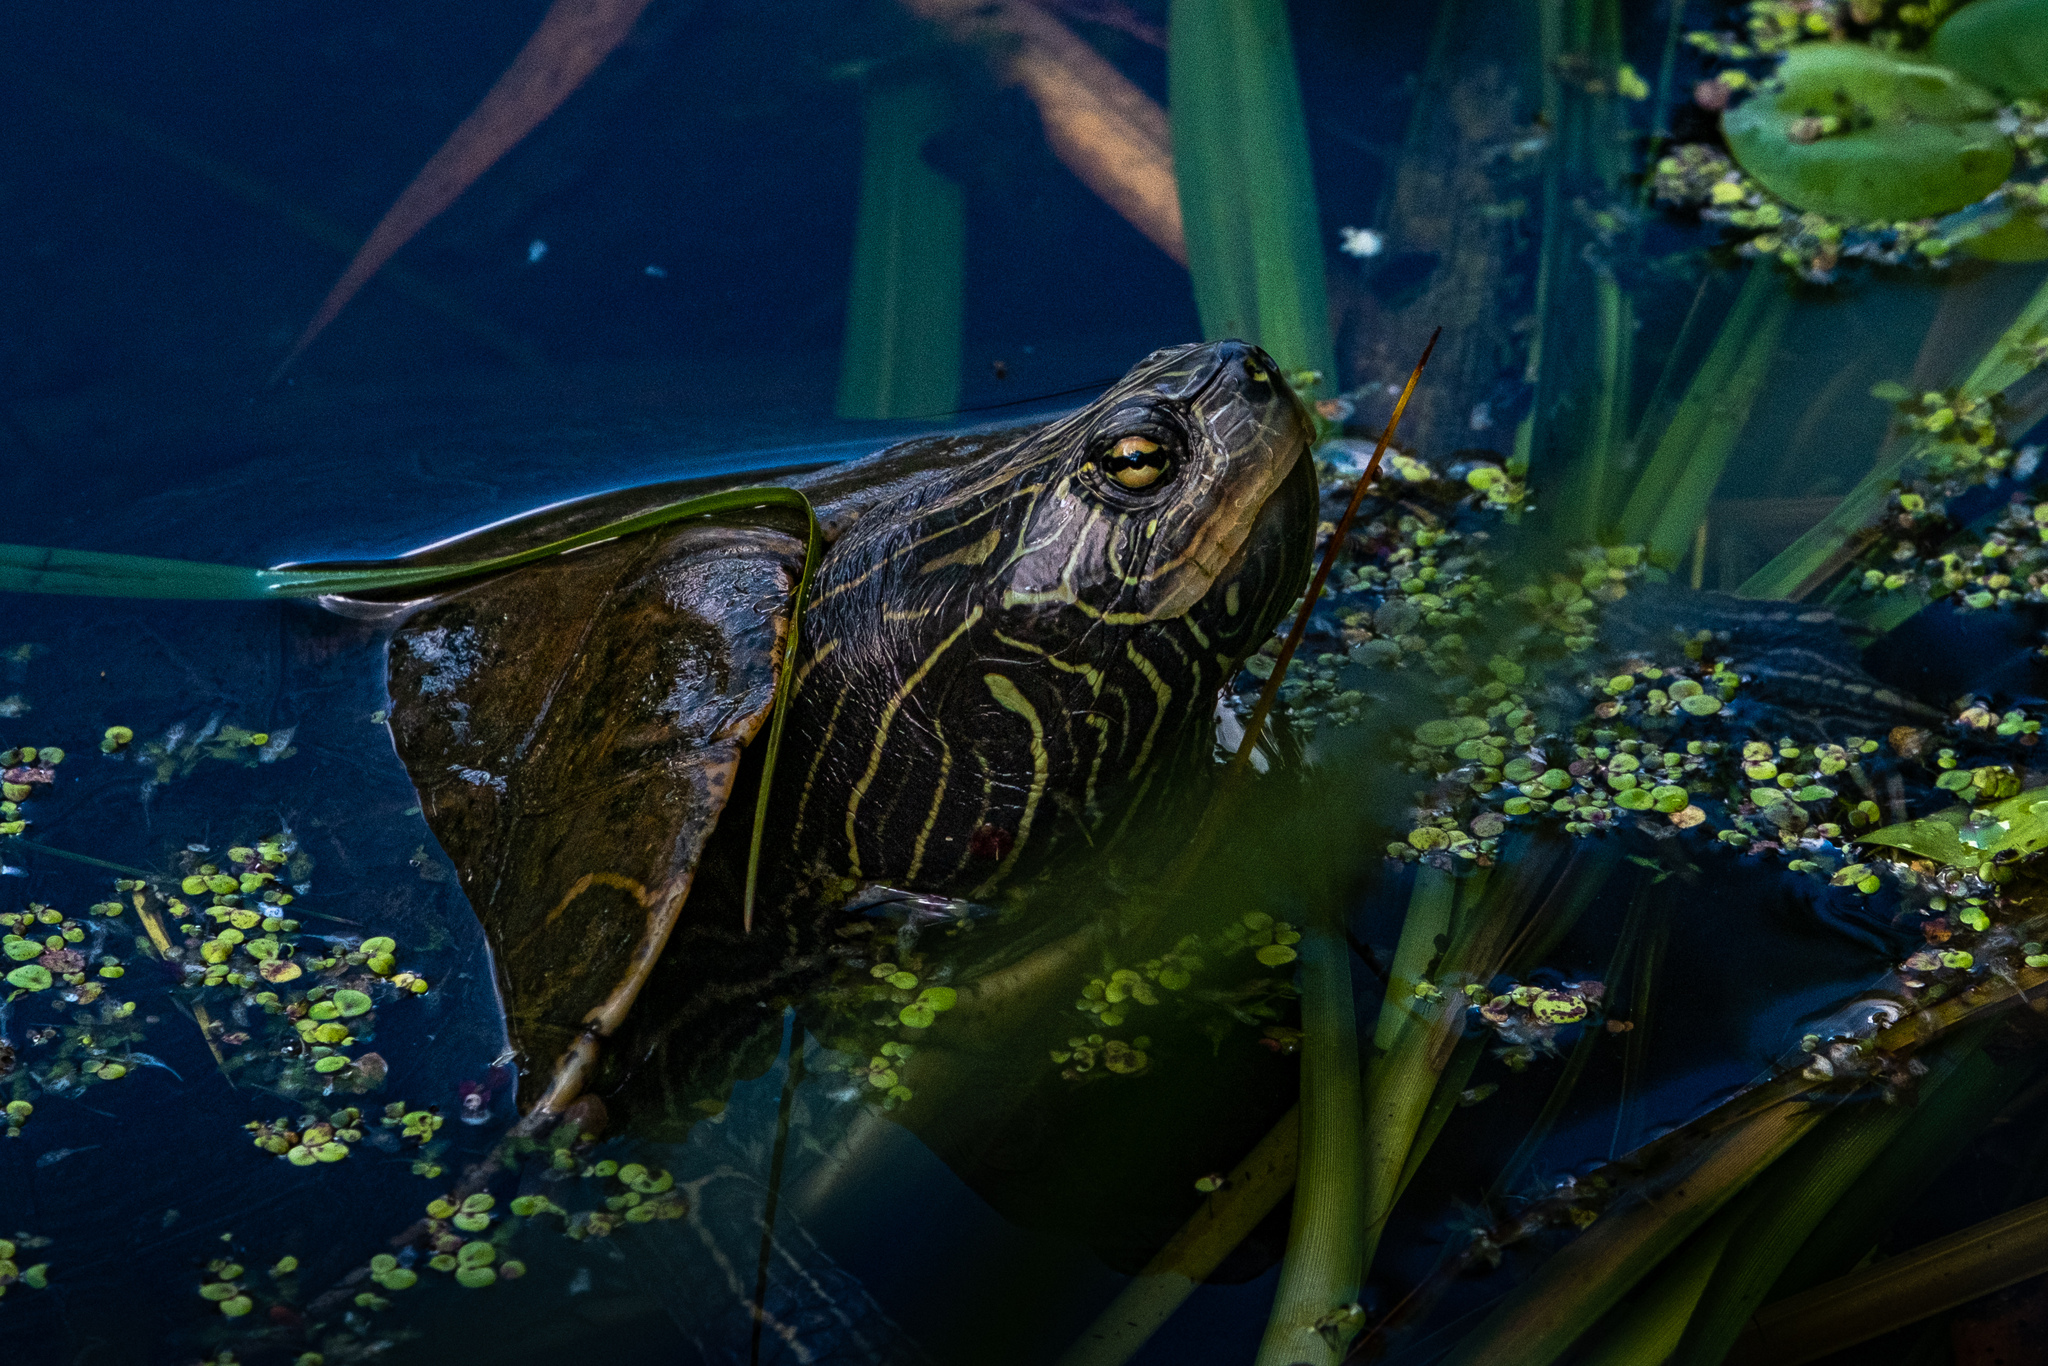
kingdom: Animalia
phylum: Chordata
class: Testudines
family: Emydidae
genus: Graptemys
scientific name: Graptemys geographica
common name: Common map turtle
